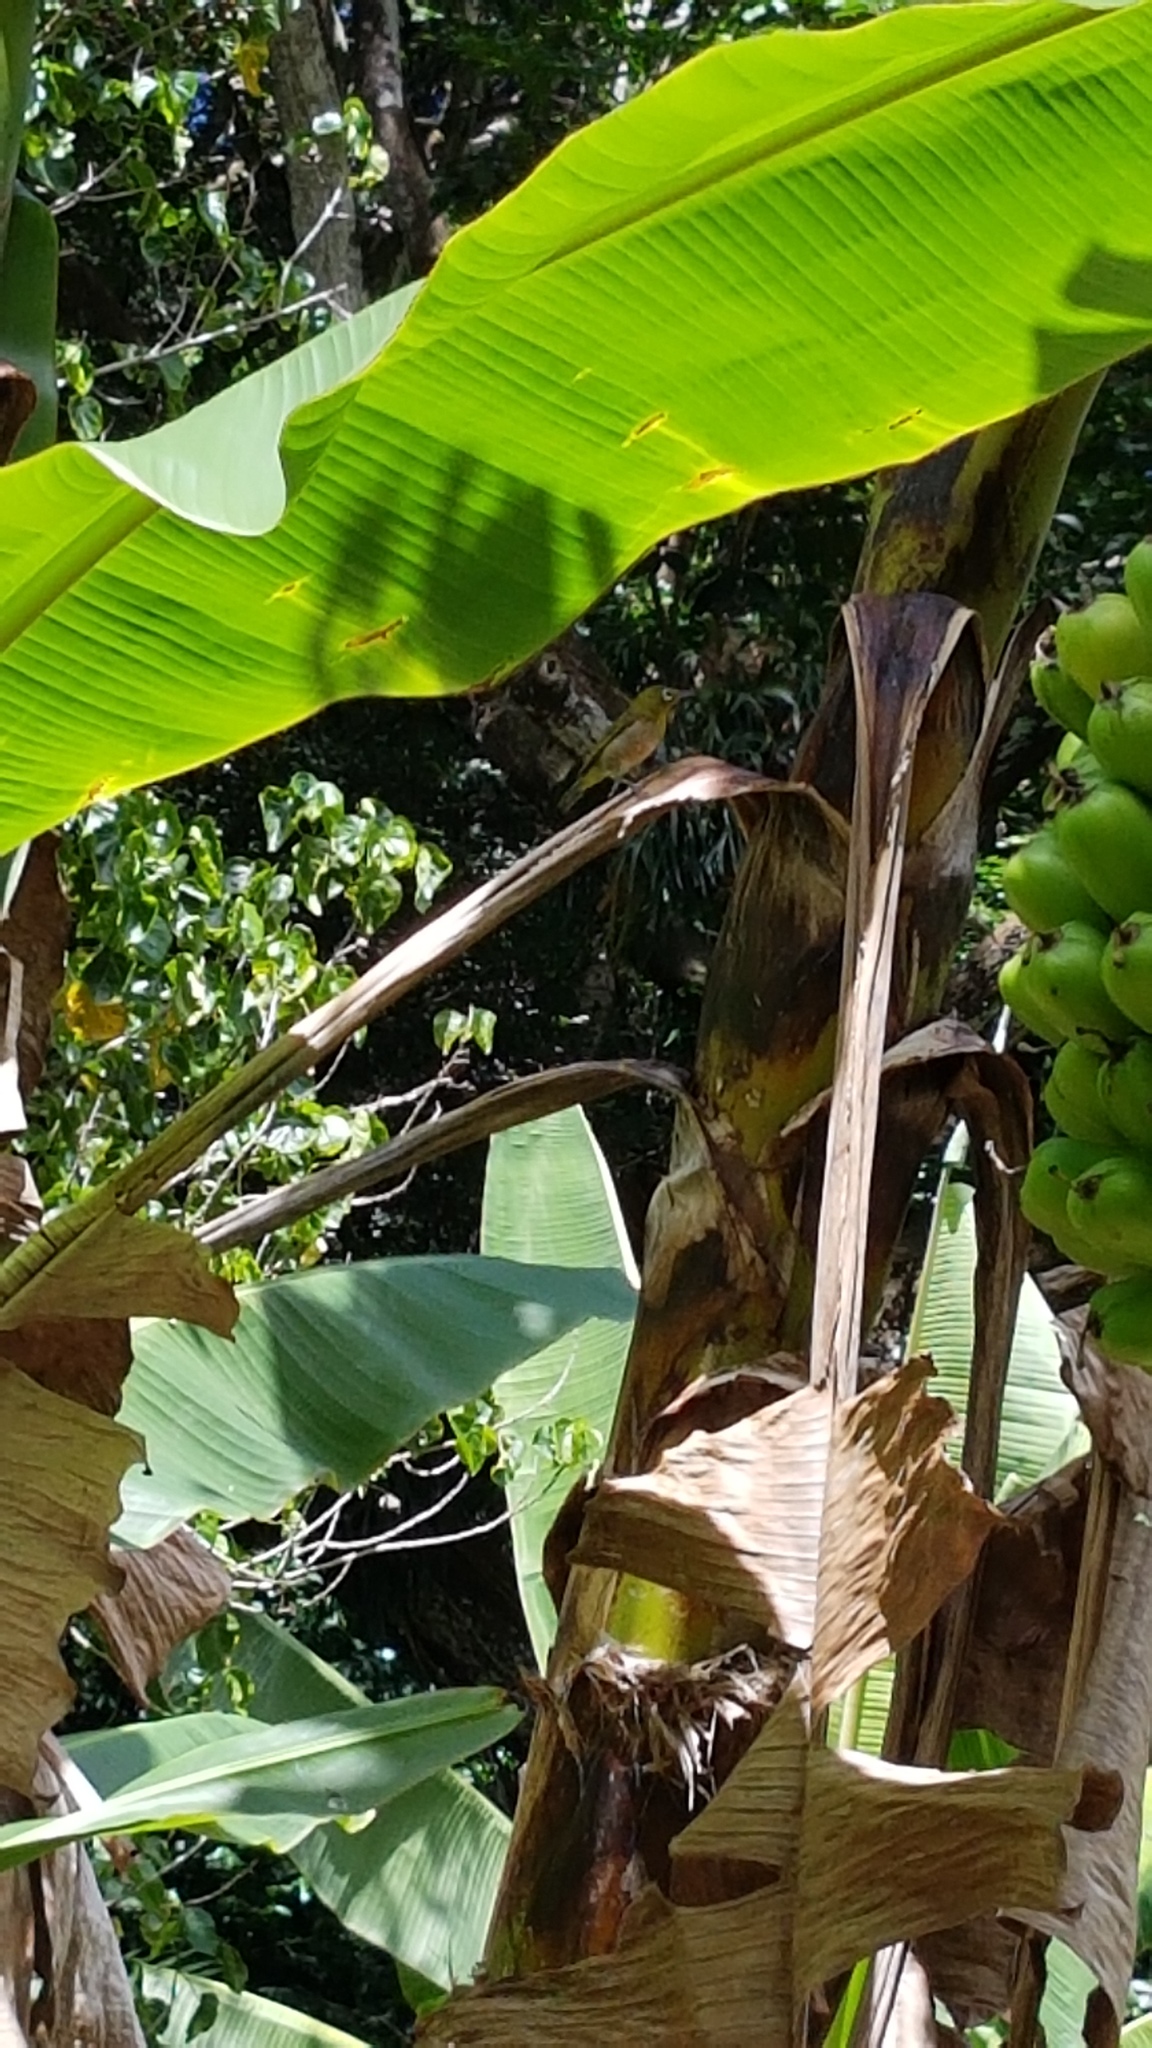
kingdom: Animalia
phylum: Chordata
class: Aves
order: Passeriformes
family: Zosteropidae
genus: Zosterops
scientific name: Zosterops japonicus
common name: Japanese white-eye
